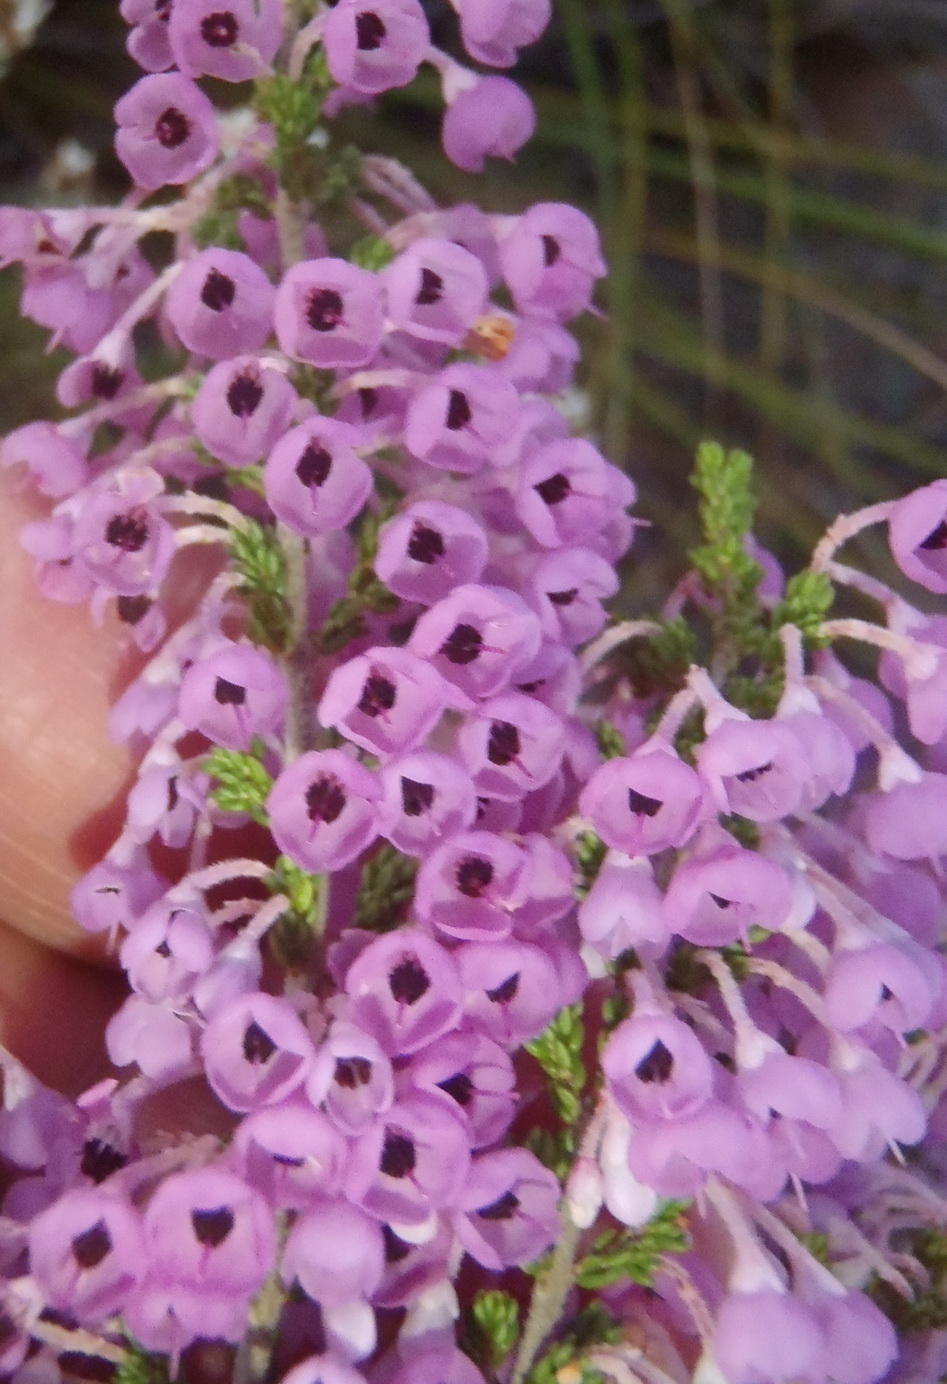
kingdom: Plantae
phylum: Tracheophyta
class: Magnoliopsida
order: Ericales
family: Ericaceae
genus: Erica
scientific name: Erica newdigatei
